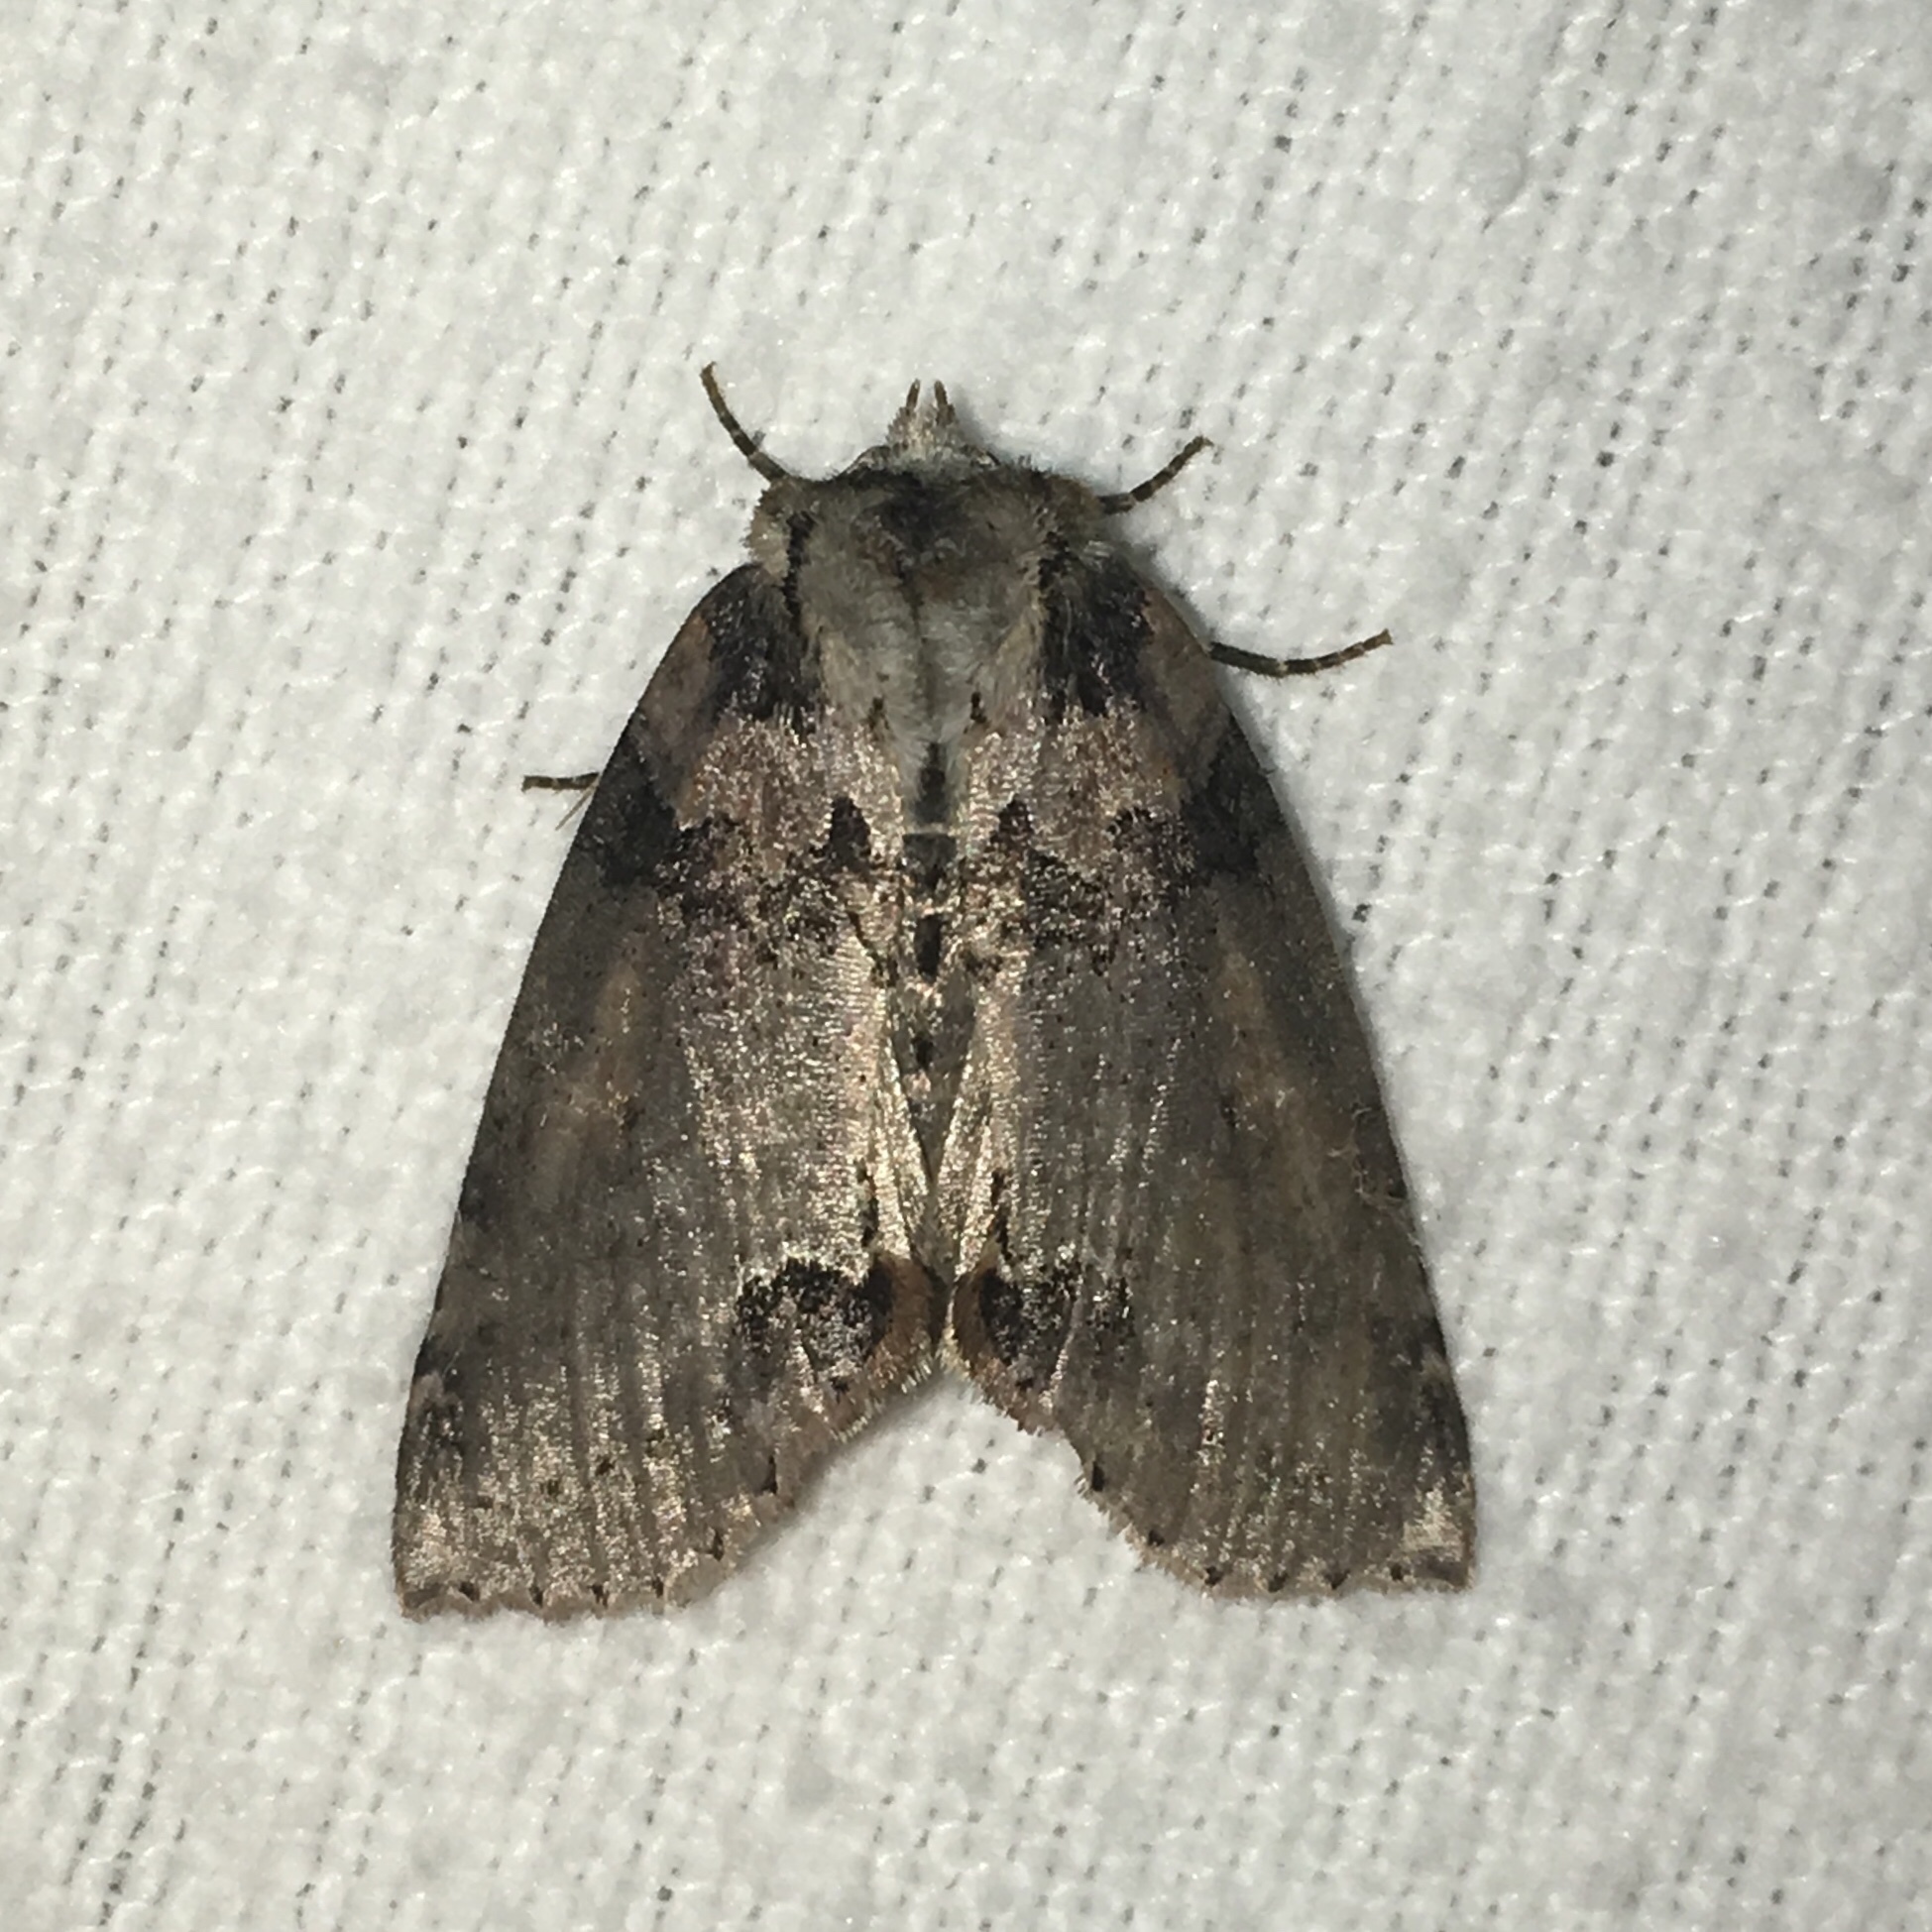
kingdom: Animalia
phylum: Arthropoda
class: Insecta
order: Lepidoptera
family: Drepanidae
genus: Pseudothyatira
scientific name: Pseudothyatira cymatophoroides
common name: Tufted thyatirid moth
